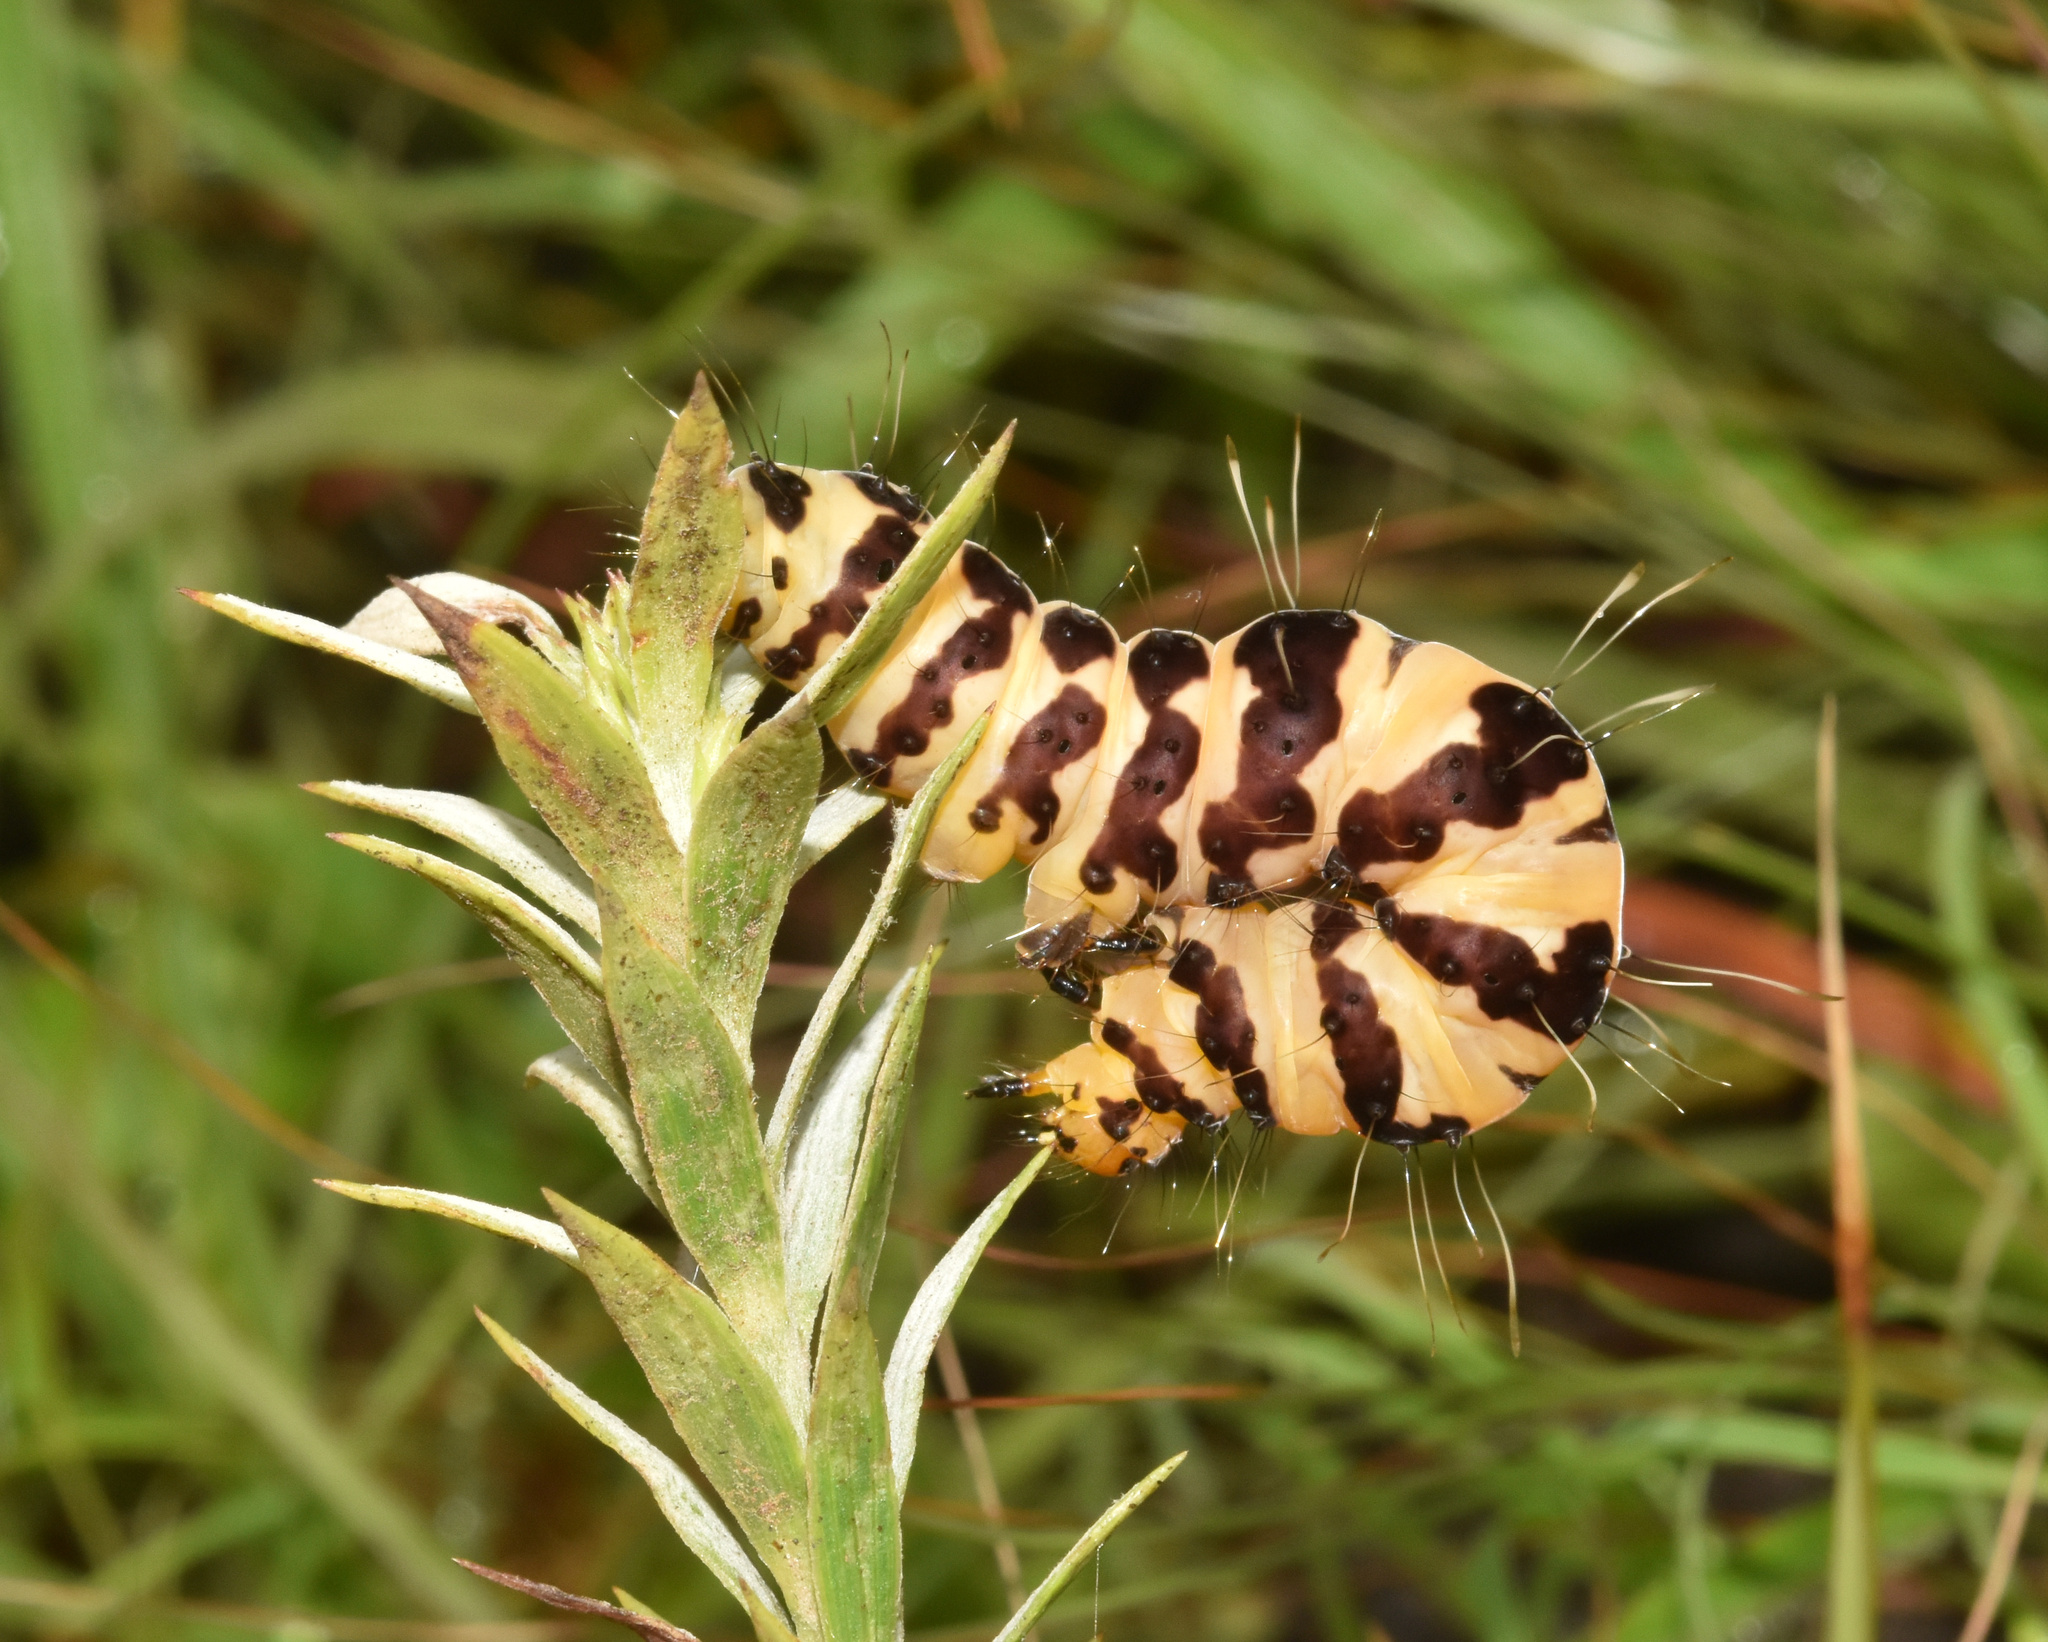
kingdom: Animalia
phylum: Arthropoda
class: Insecta
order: Lepidoptera
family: Erebidae
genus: Rhanidophora
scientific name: Rhanidophora phedonia
